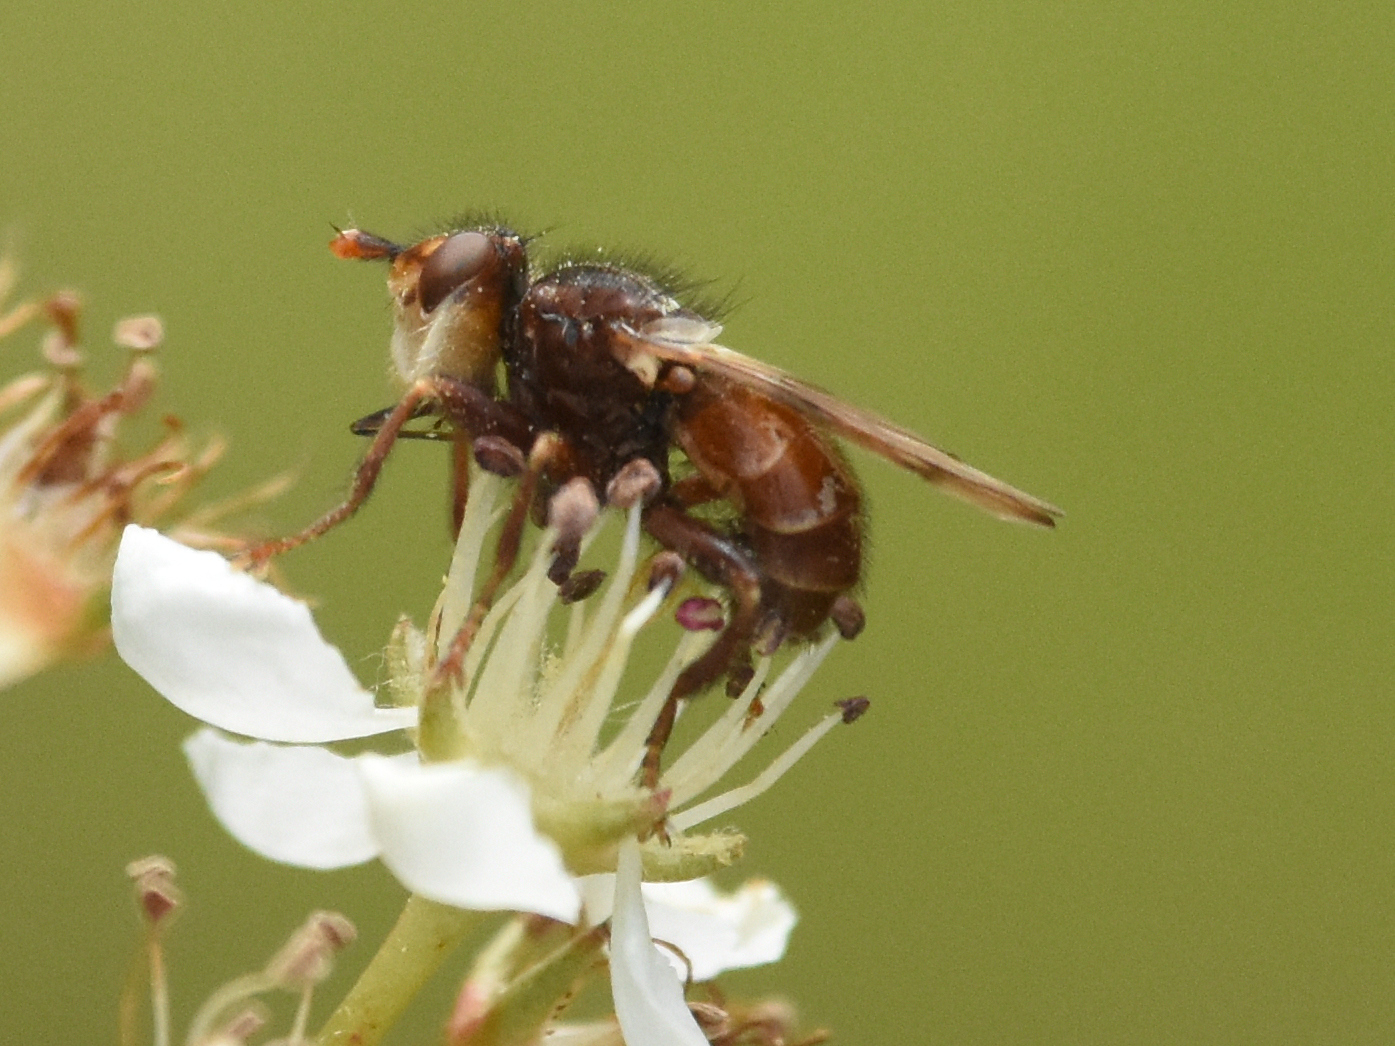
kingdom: Animalia
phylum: Arthropoda
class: Insecta
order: Diptera
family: Conopidae
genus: Myopa
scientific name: Myopa vicaria
